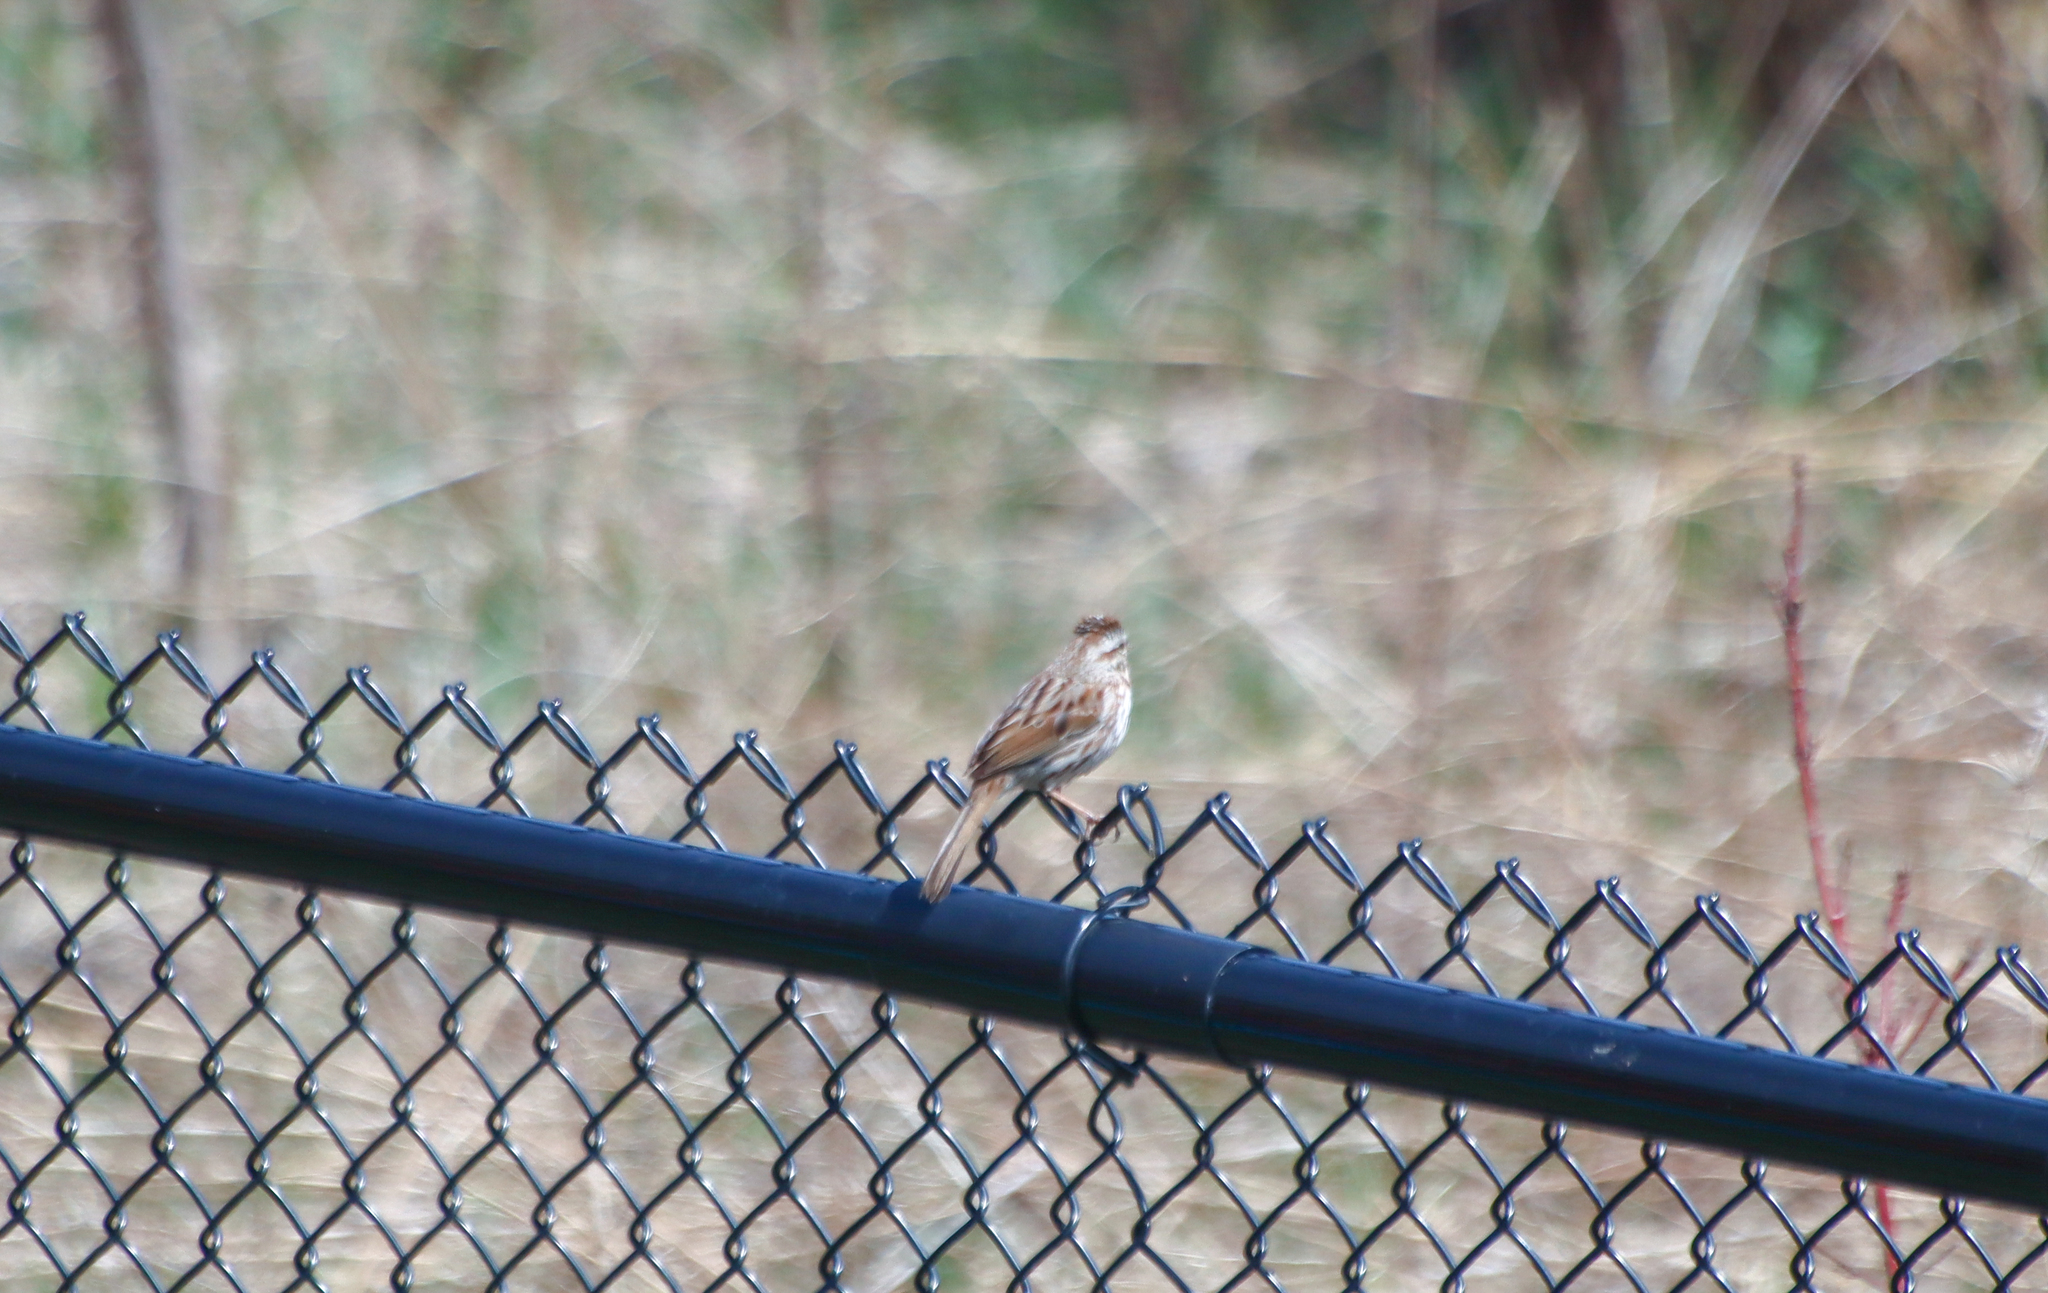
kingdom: Animalia
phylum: Chordata
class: Aves
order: Passeriformes
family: Passerellidae
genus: Melospiza
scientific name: Melospiza melodia
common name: Song sparrow
